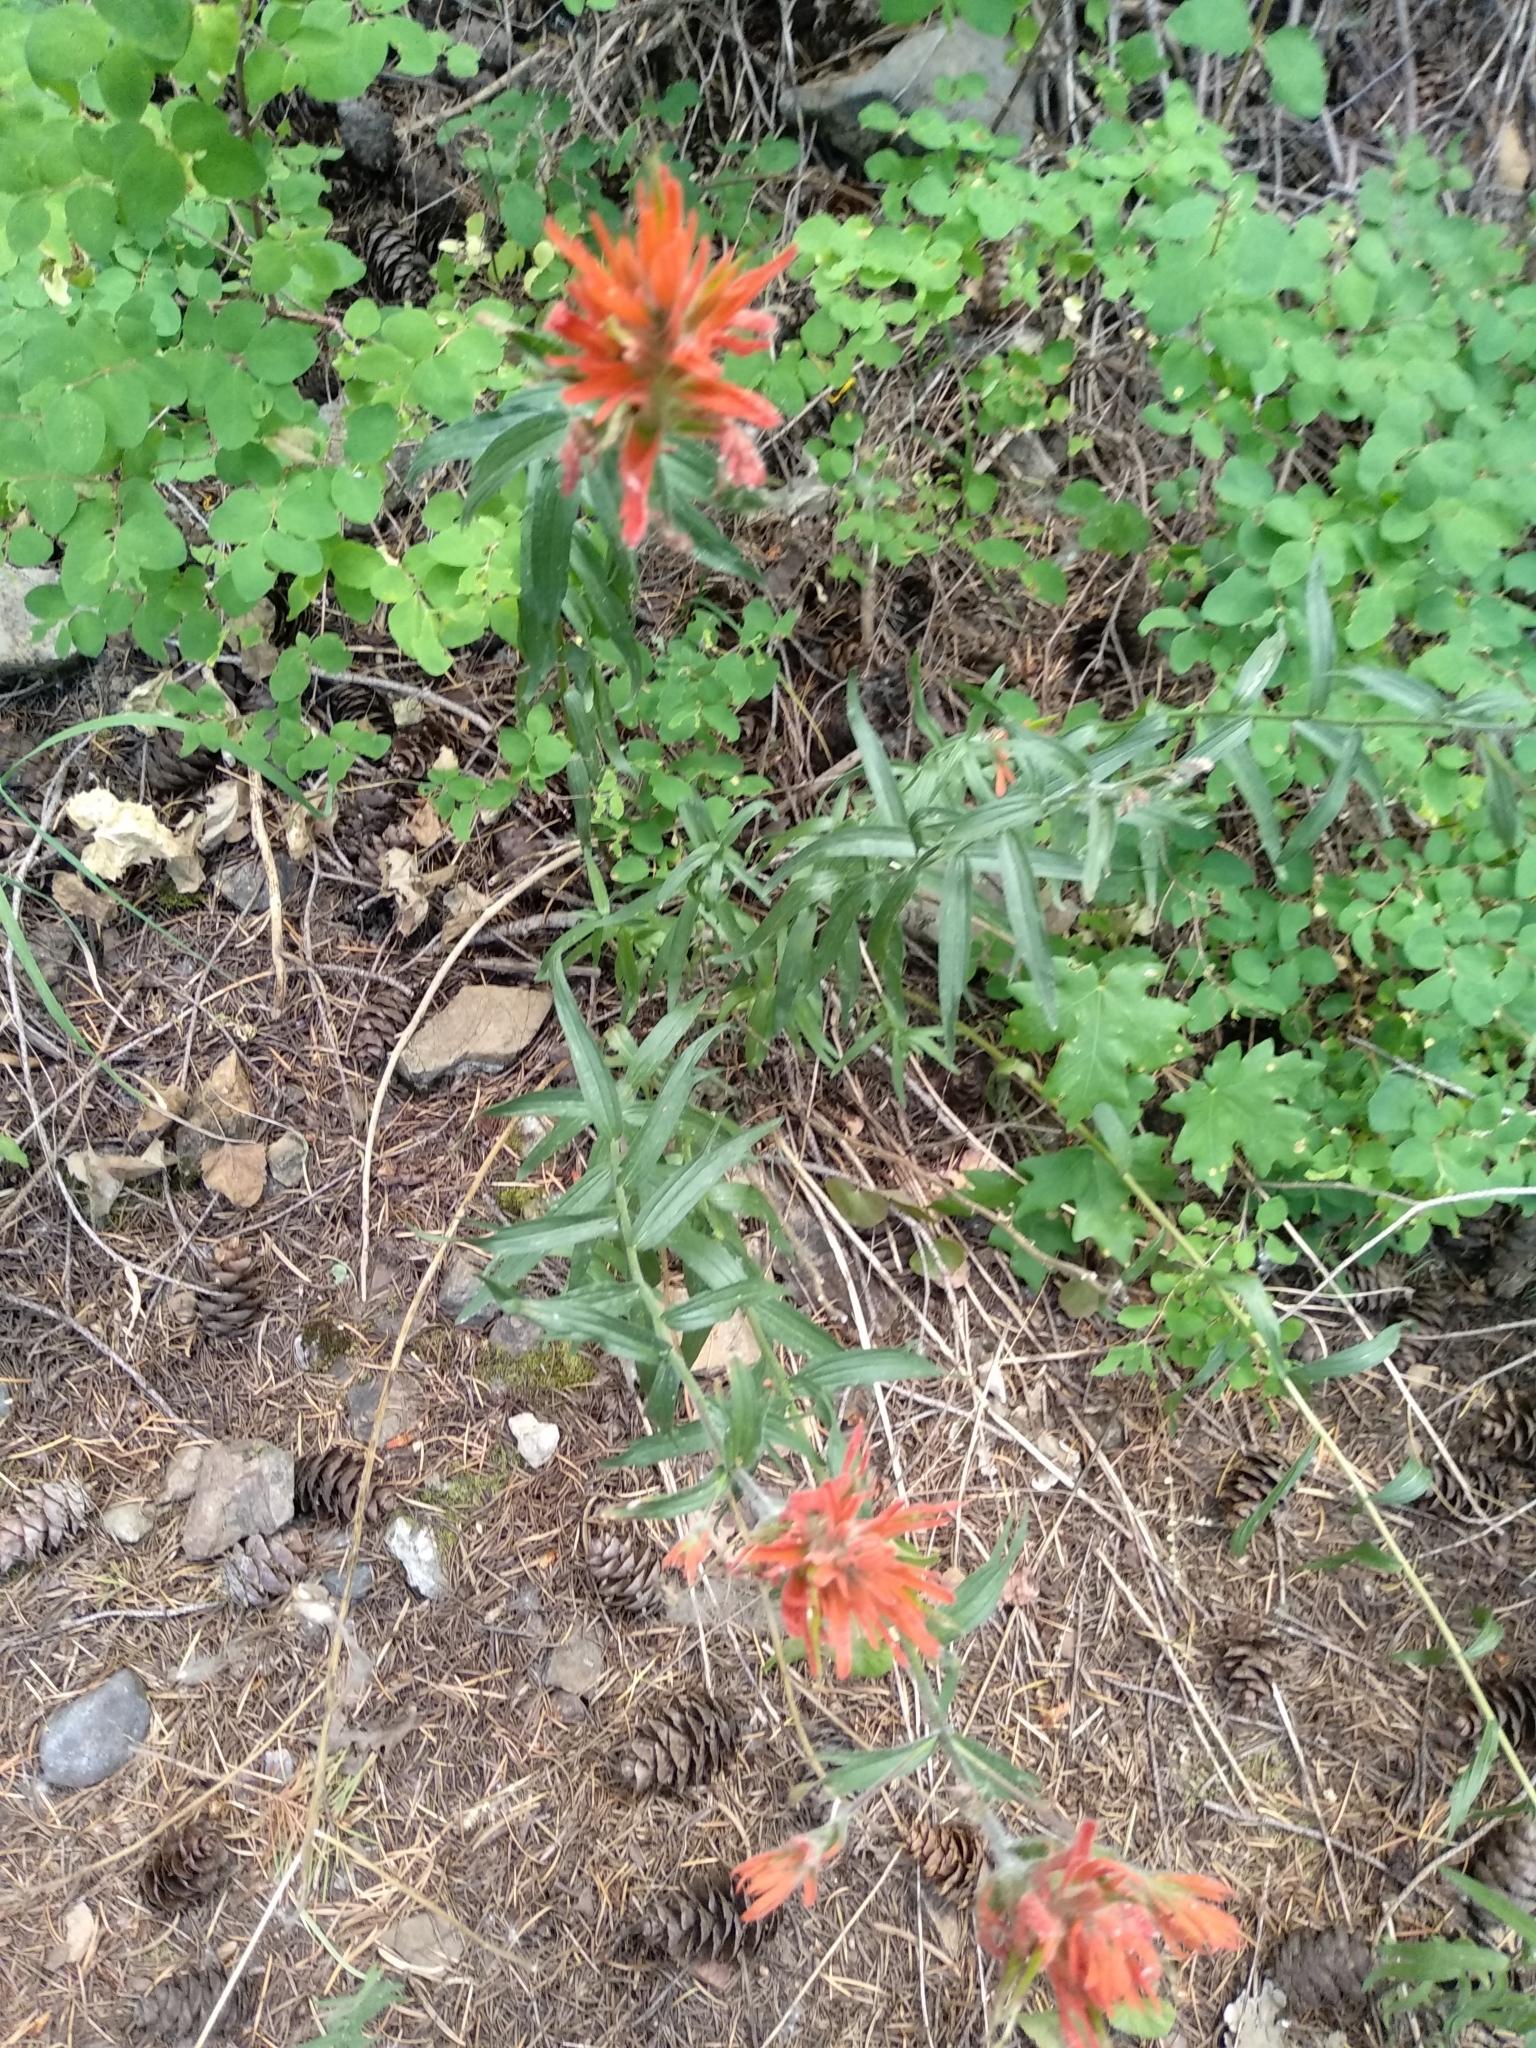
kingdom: Plantae
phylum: Tracheophyta
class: Magnoliopsida
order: Lamiales
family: Orobanchaceae
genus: Castilleja
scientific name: Castilleja miniata
